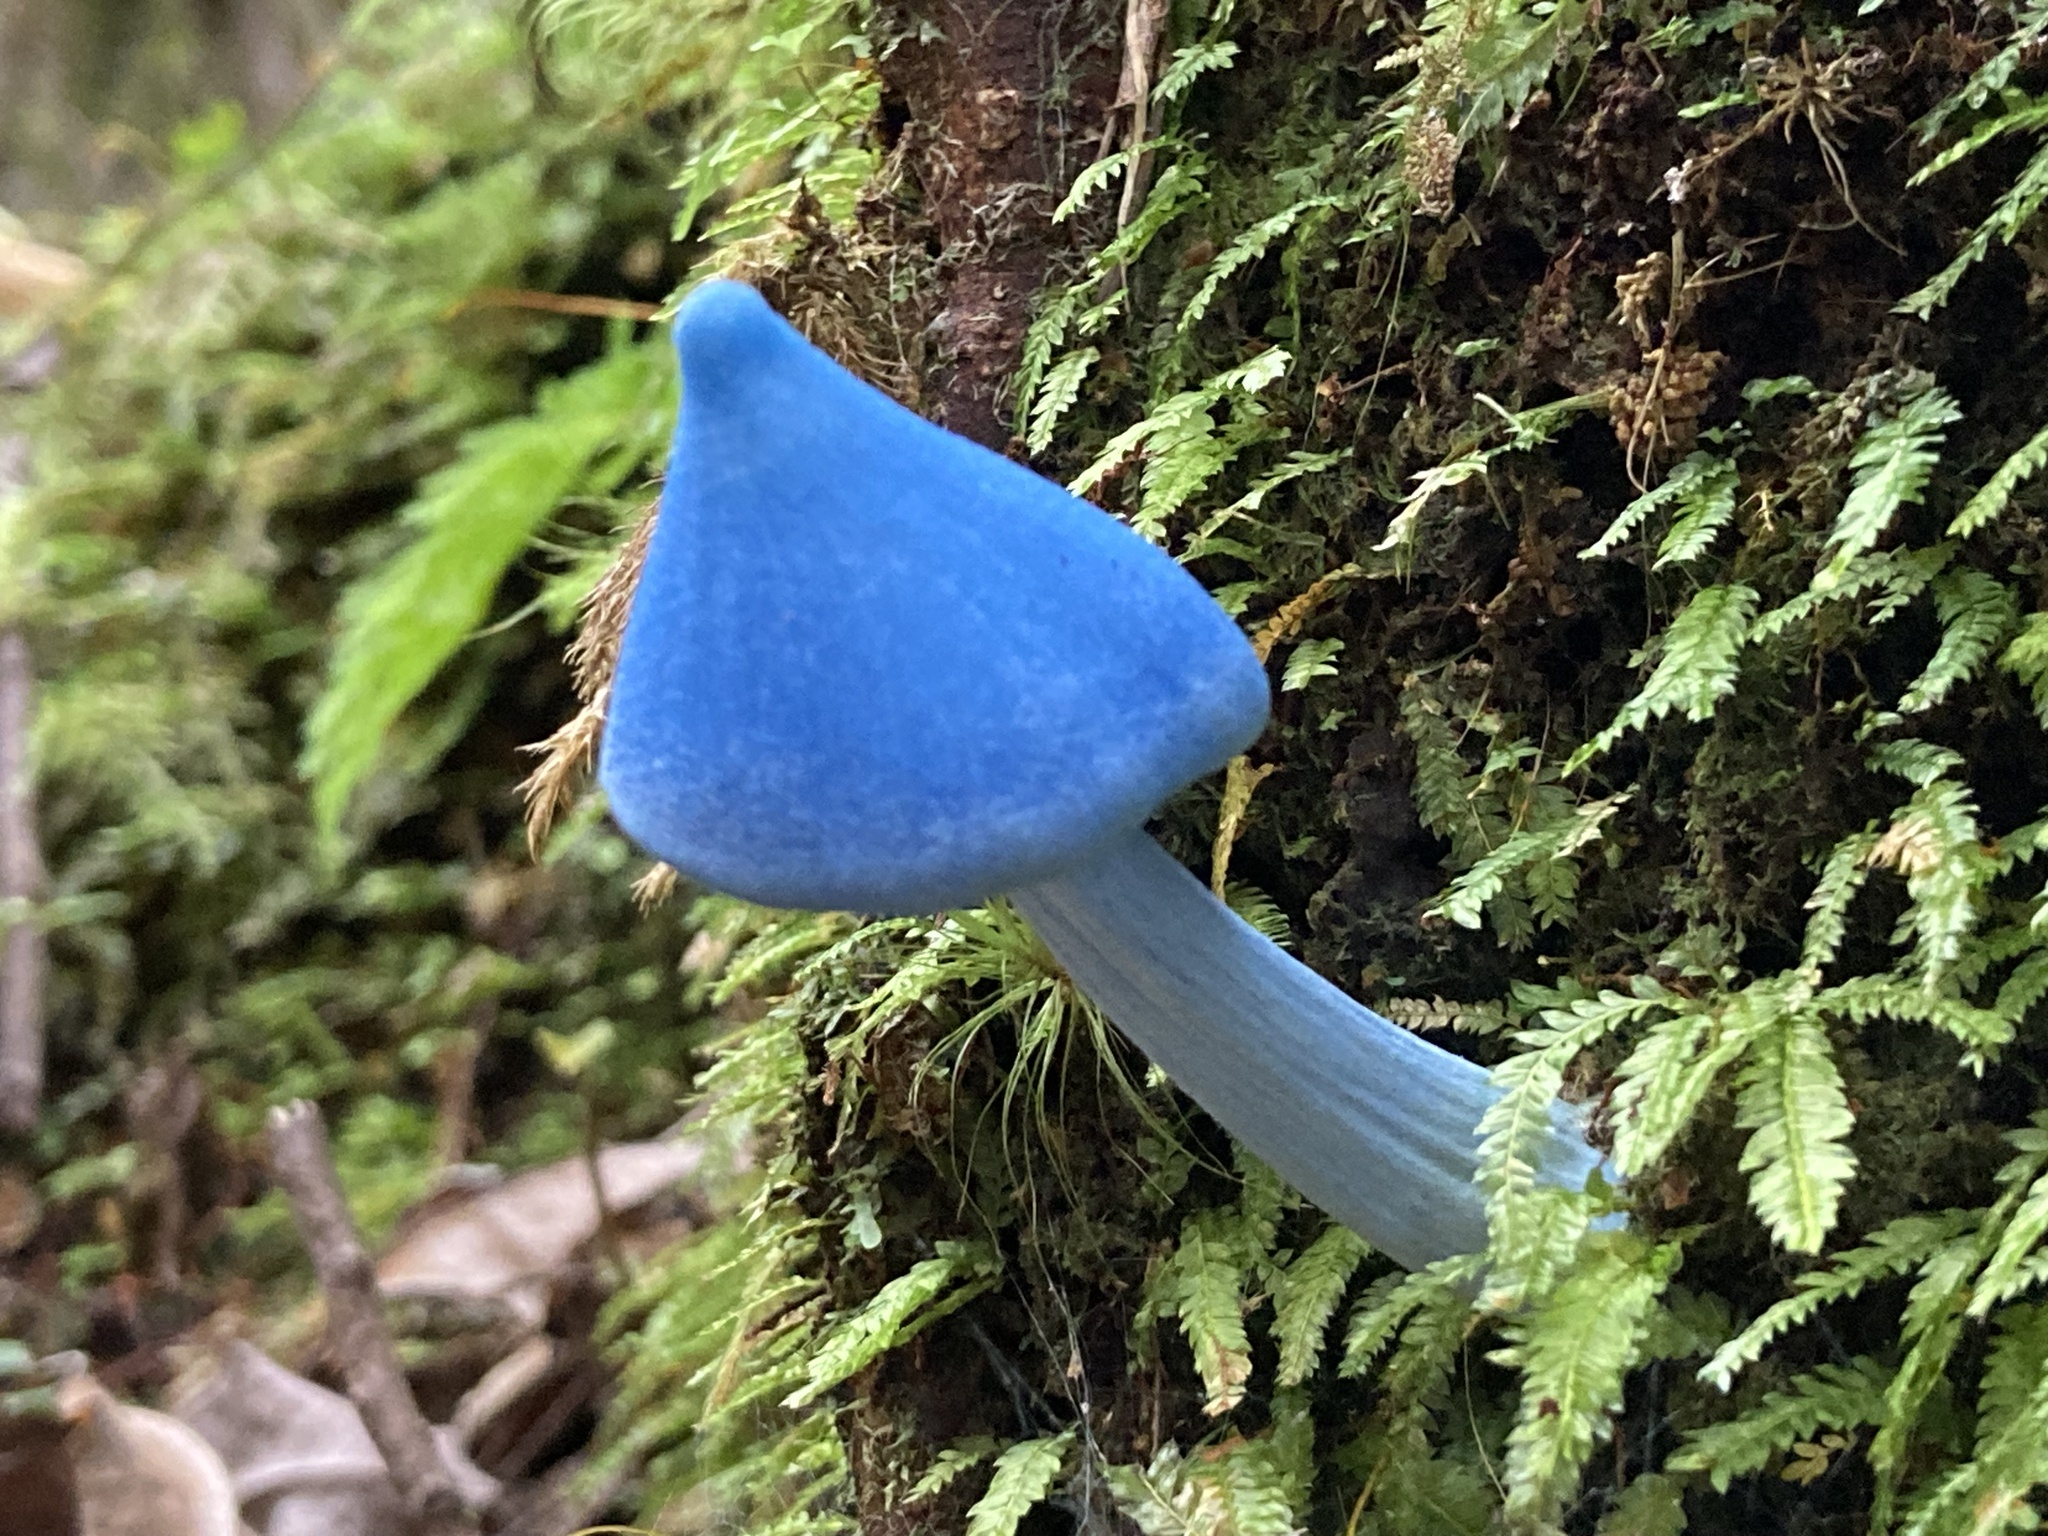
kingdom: Fungi
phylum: Basidiomycota
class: Agaricomycetes
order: Agaricales
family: Entolomataceae
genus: Entoloma
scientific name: Entoloma hochstetteri
